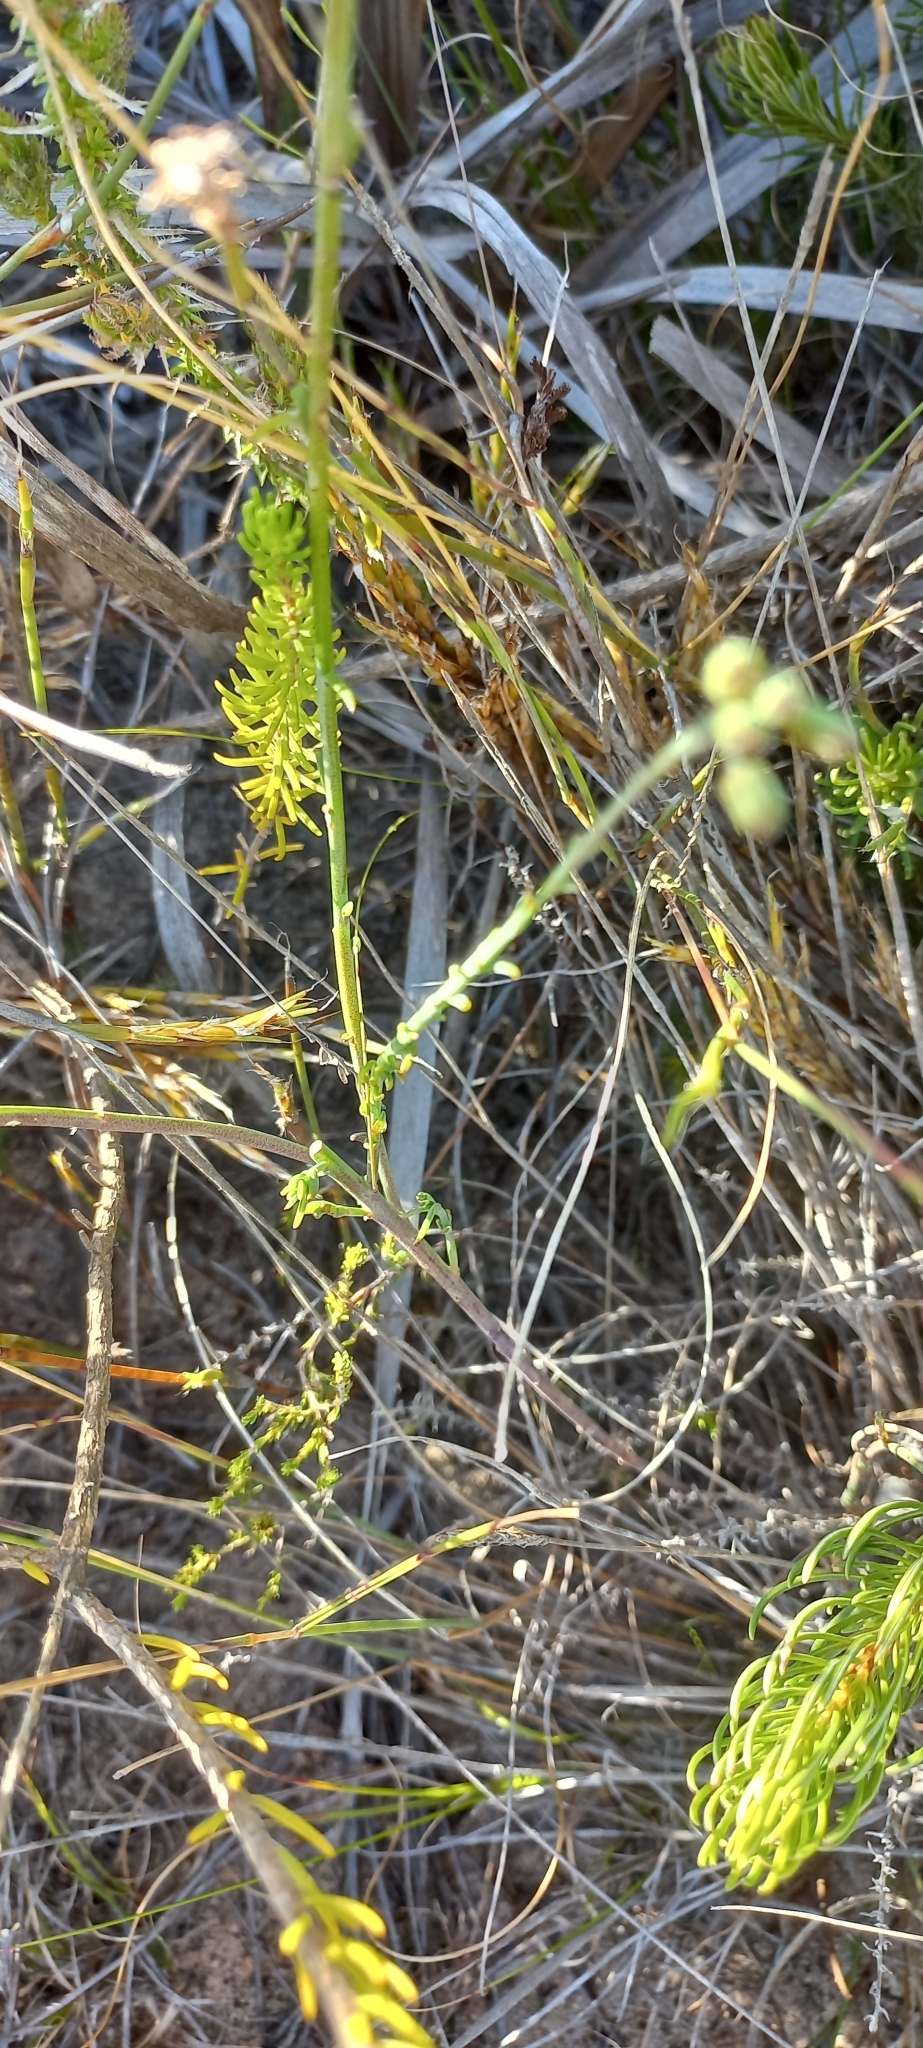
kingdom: Plantae
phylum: Tracheophyta
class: Magnoliopsida
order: Brassicales
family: Brassicaceae
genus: Heliophila
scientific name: Heliophila linearis
